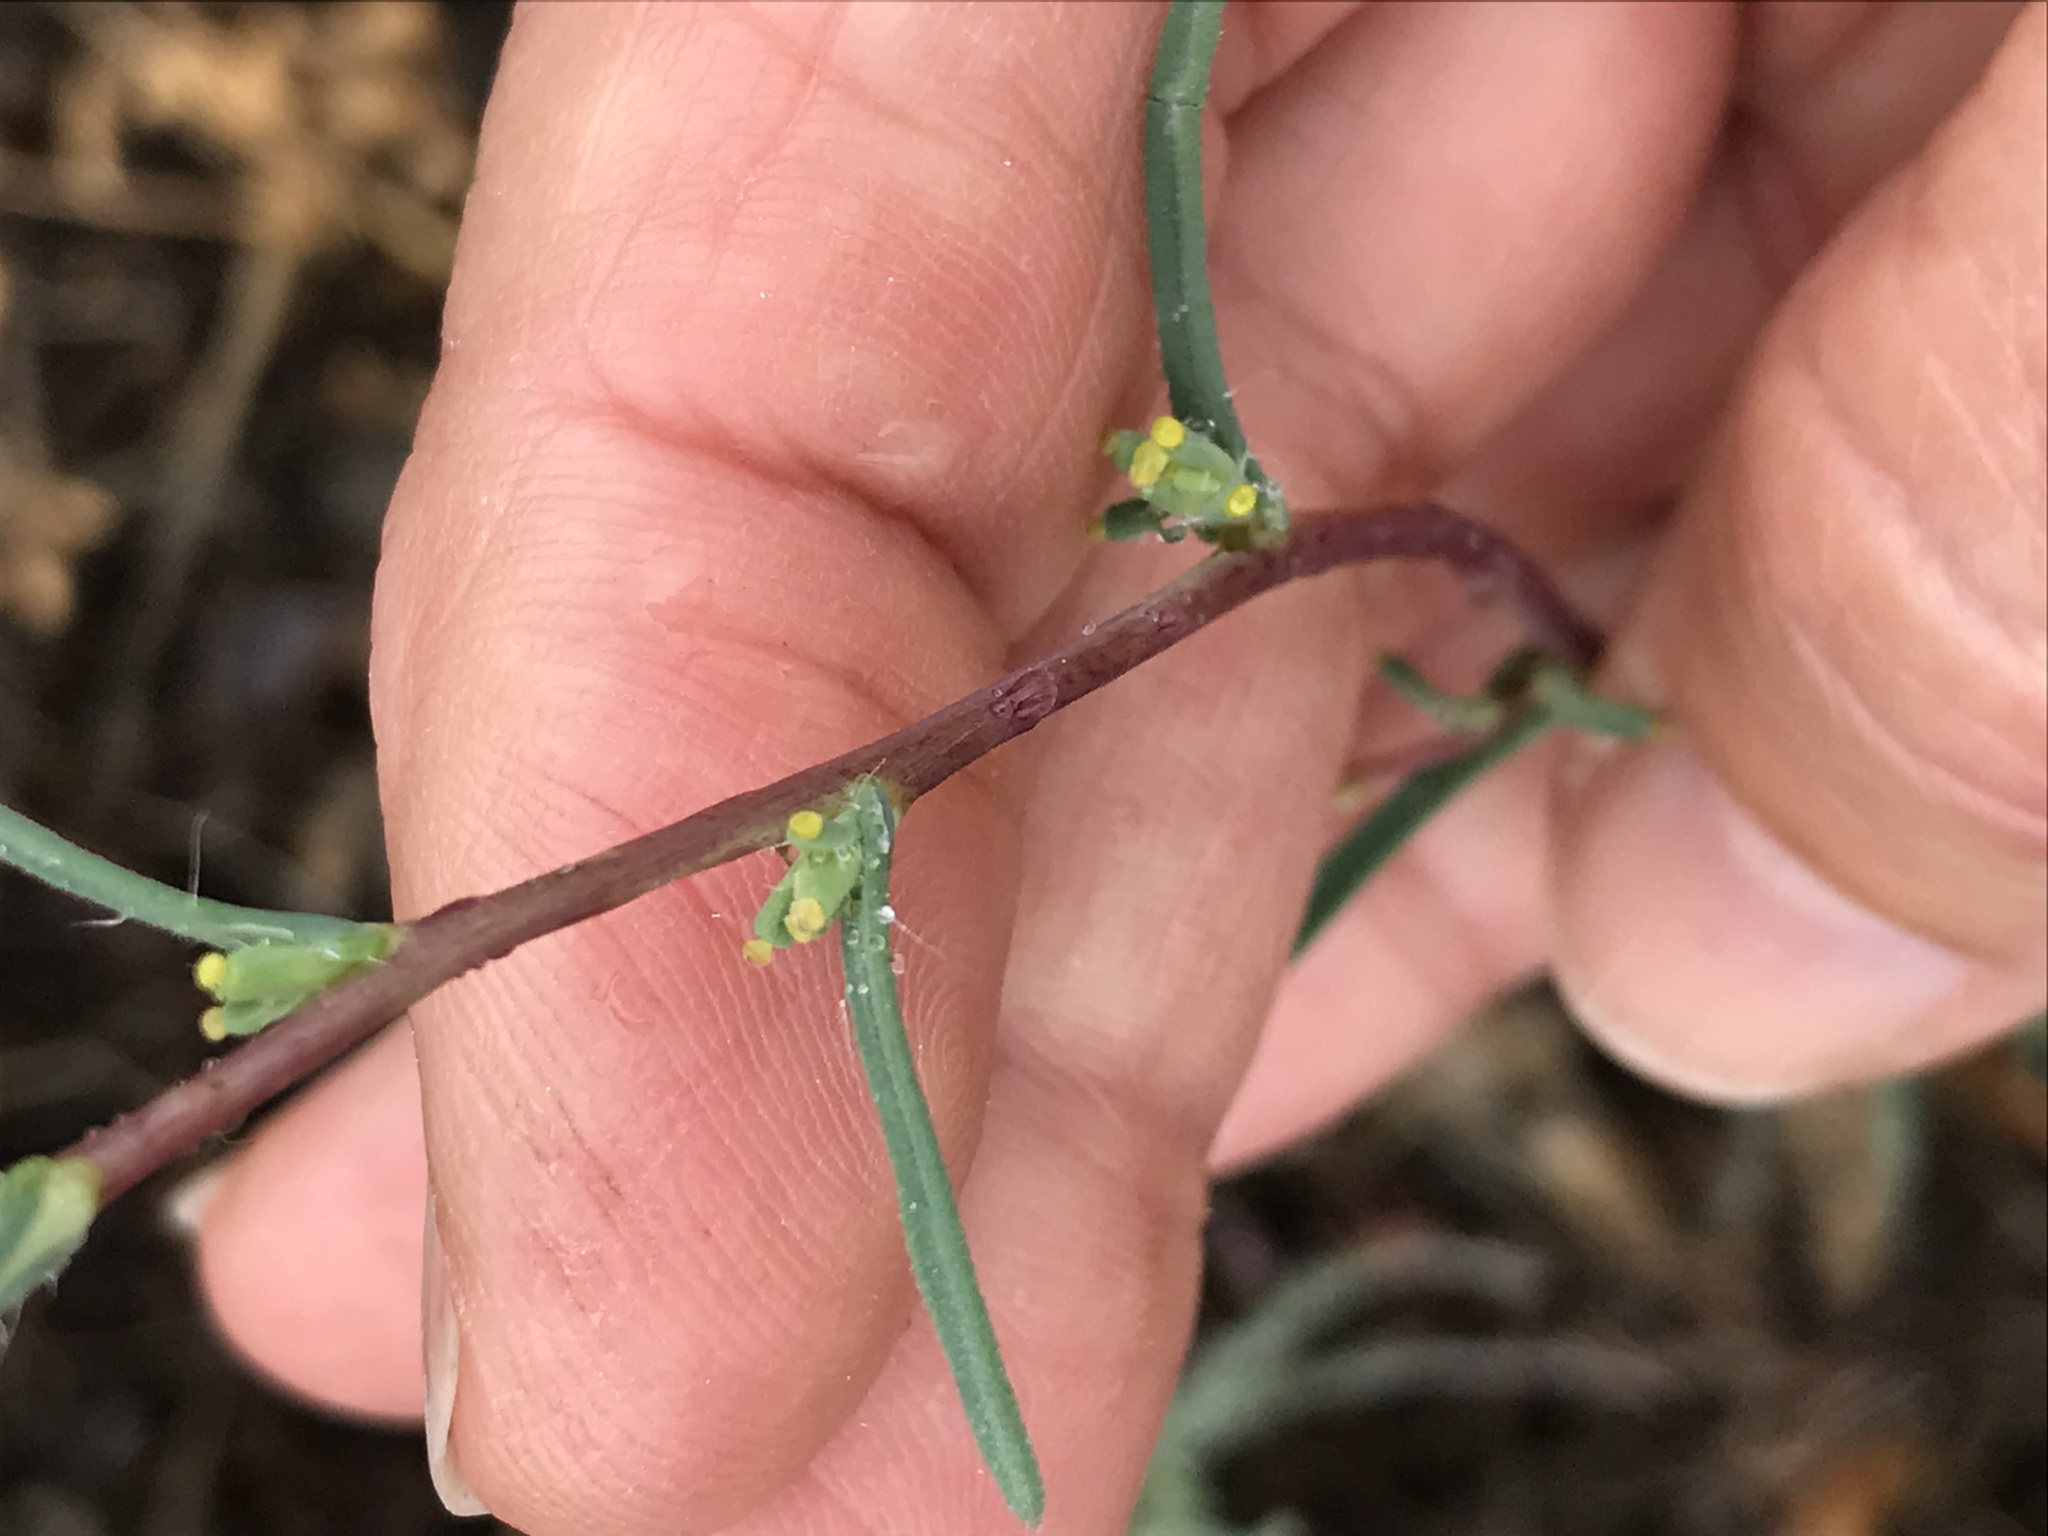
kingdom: Plantae
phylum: Tracheophyta
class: Magnoliopsida
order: Asterales
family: Asteraceae
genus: Calycadenia
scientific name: Calycadenia truncata
